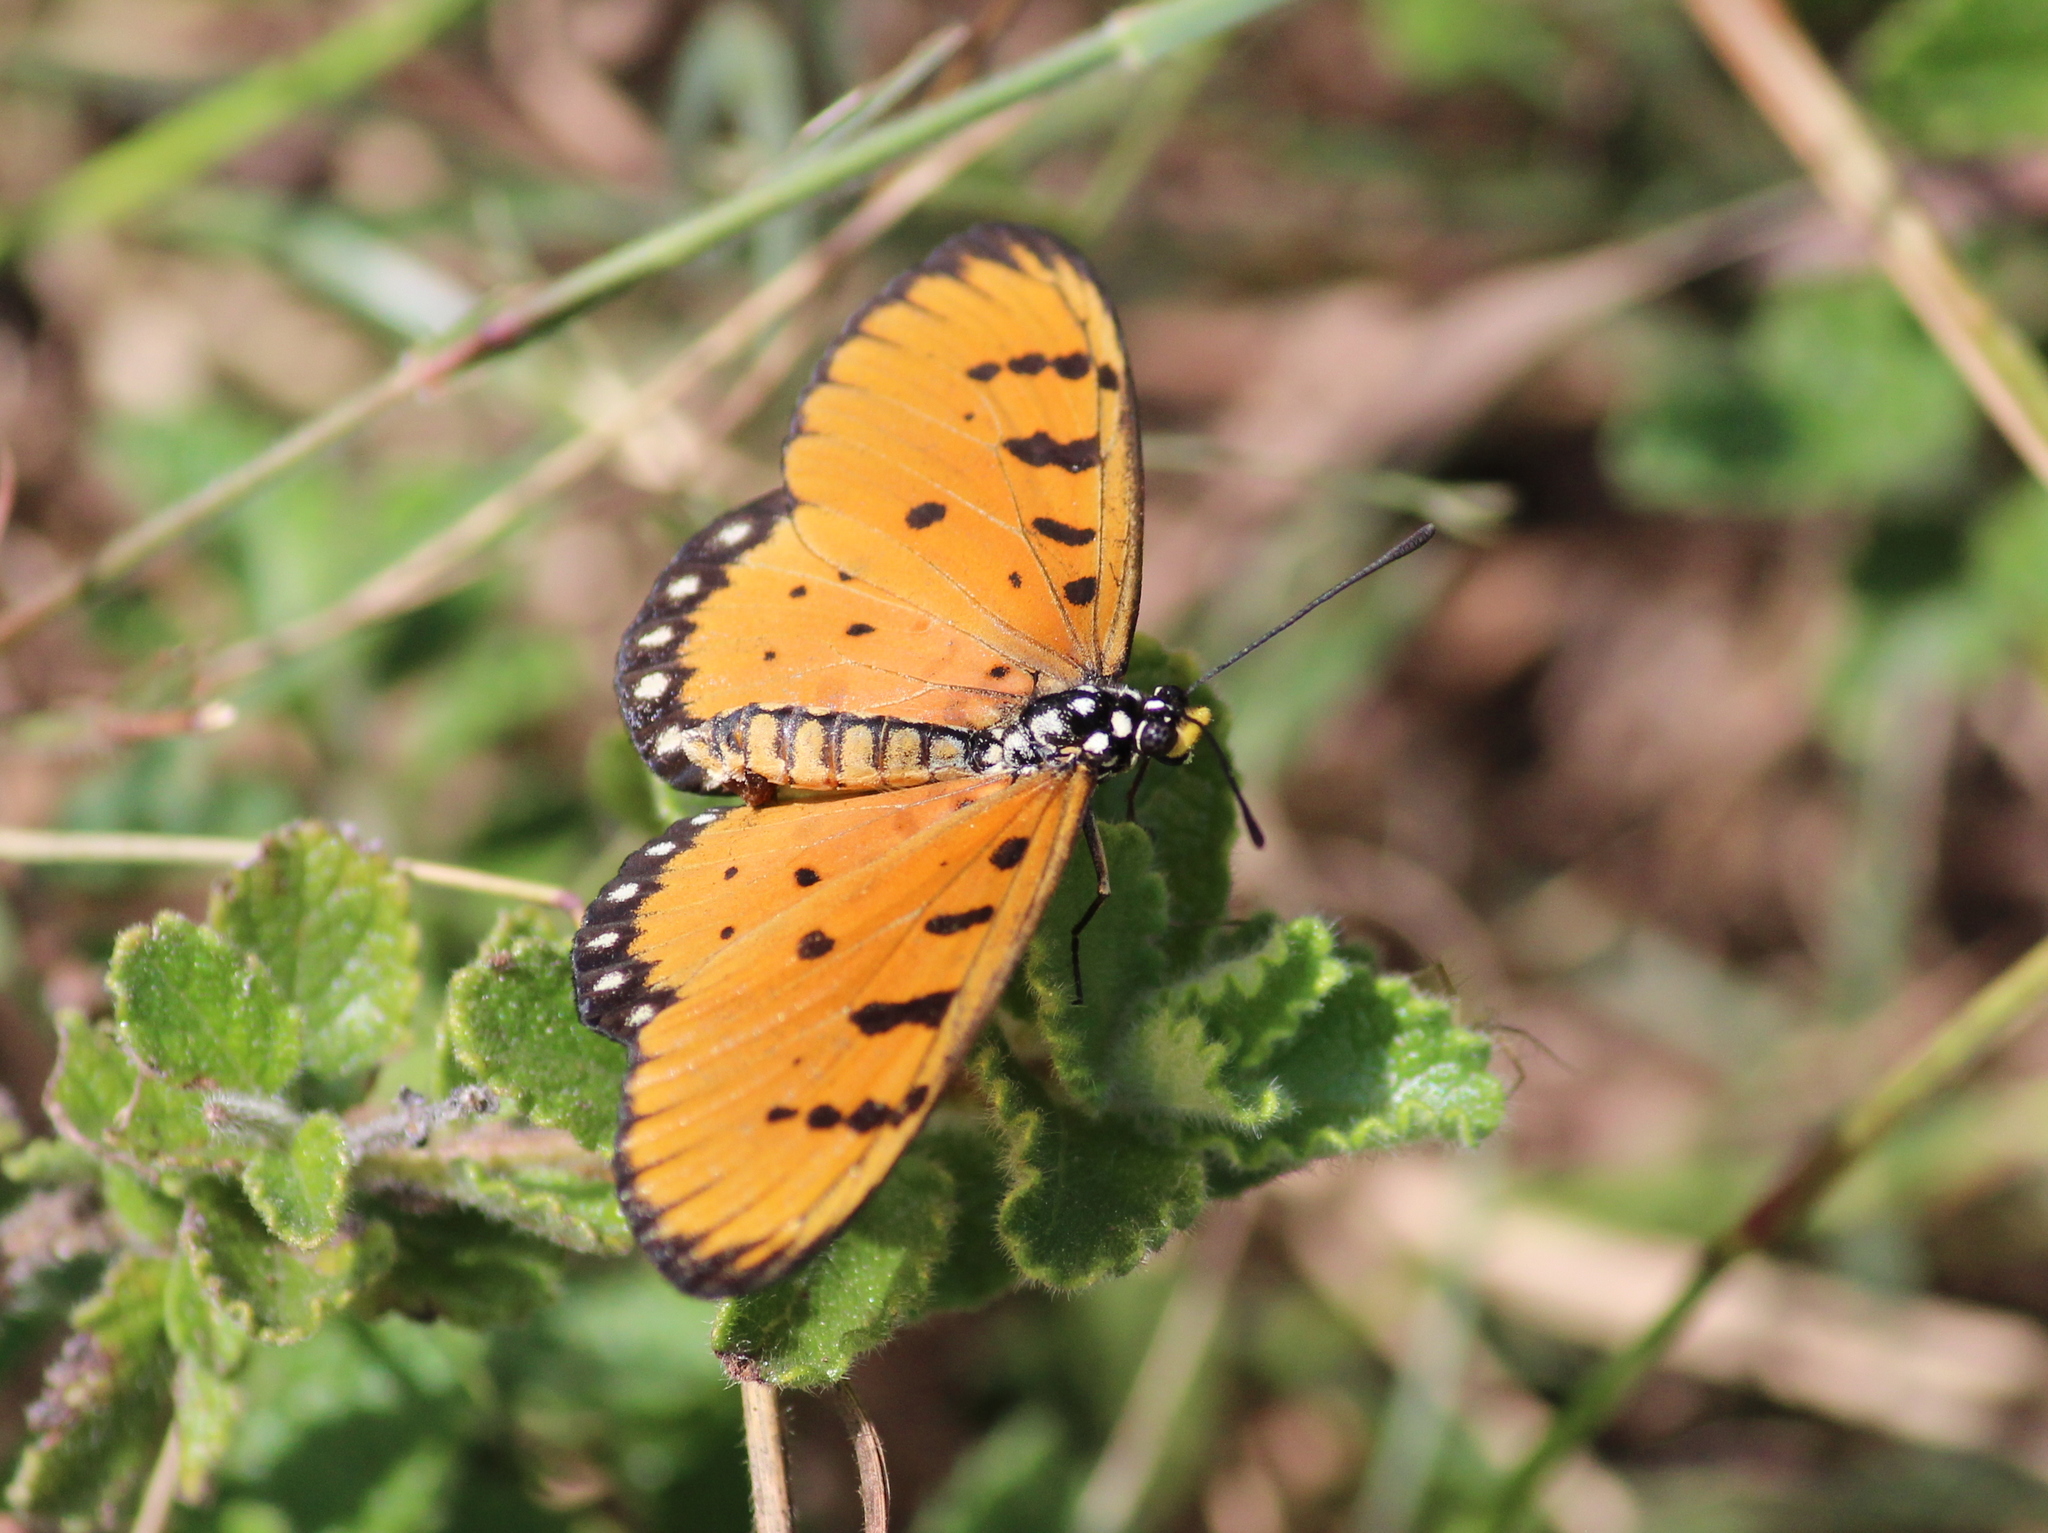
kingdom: Animalia
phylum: Arthropoda
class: Insecta
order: Lepidoptera
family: Nymphalidae
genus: Acraea
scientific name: Acraea terpsicore
